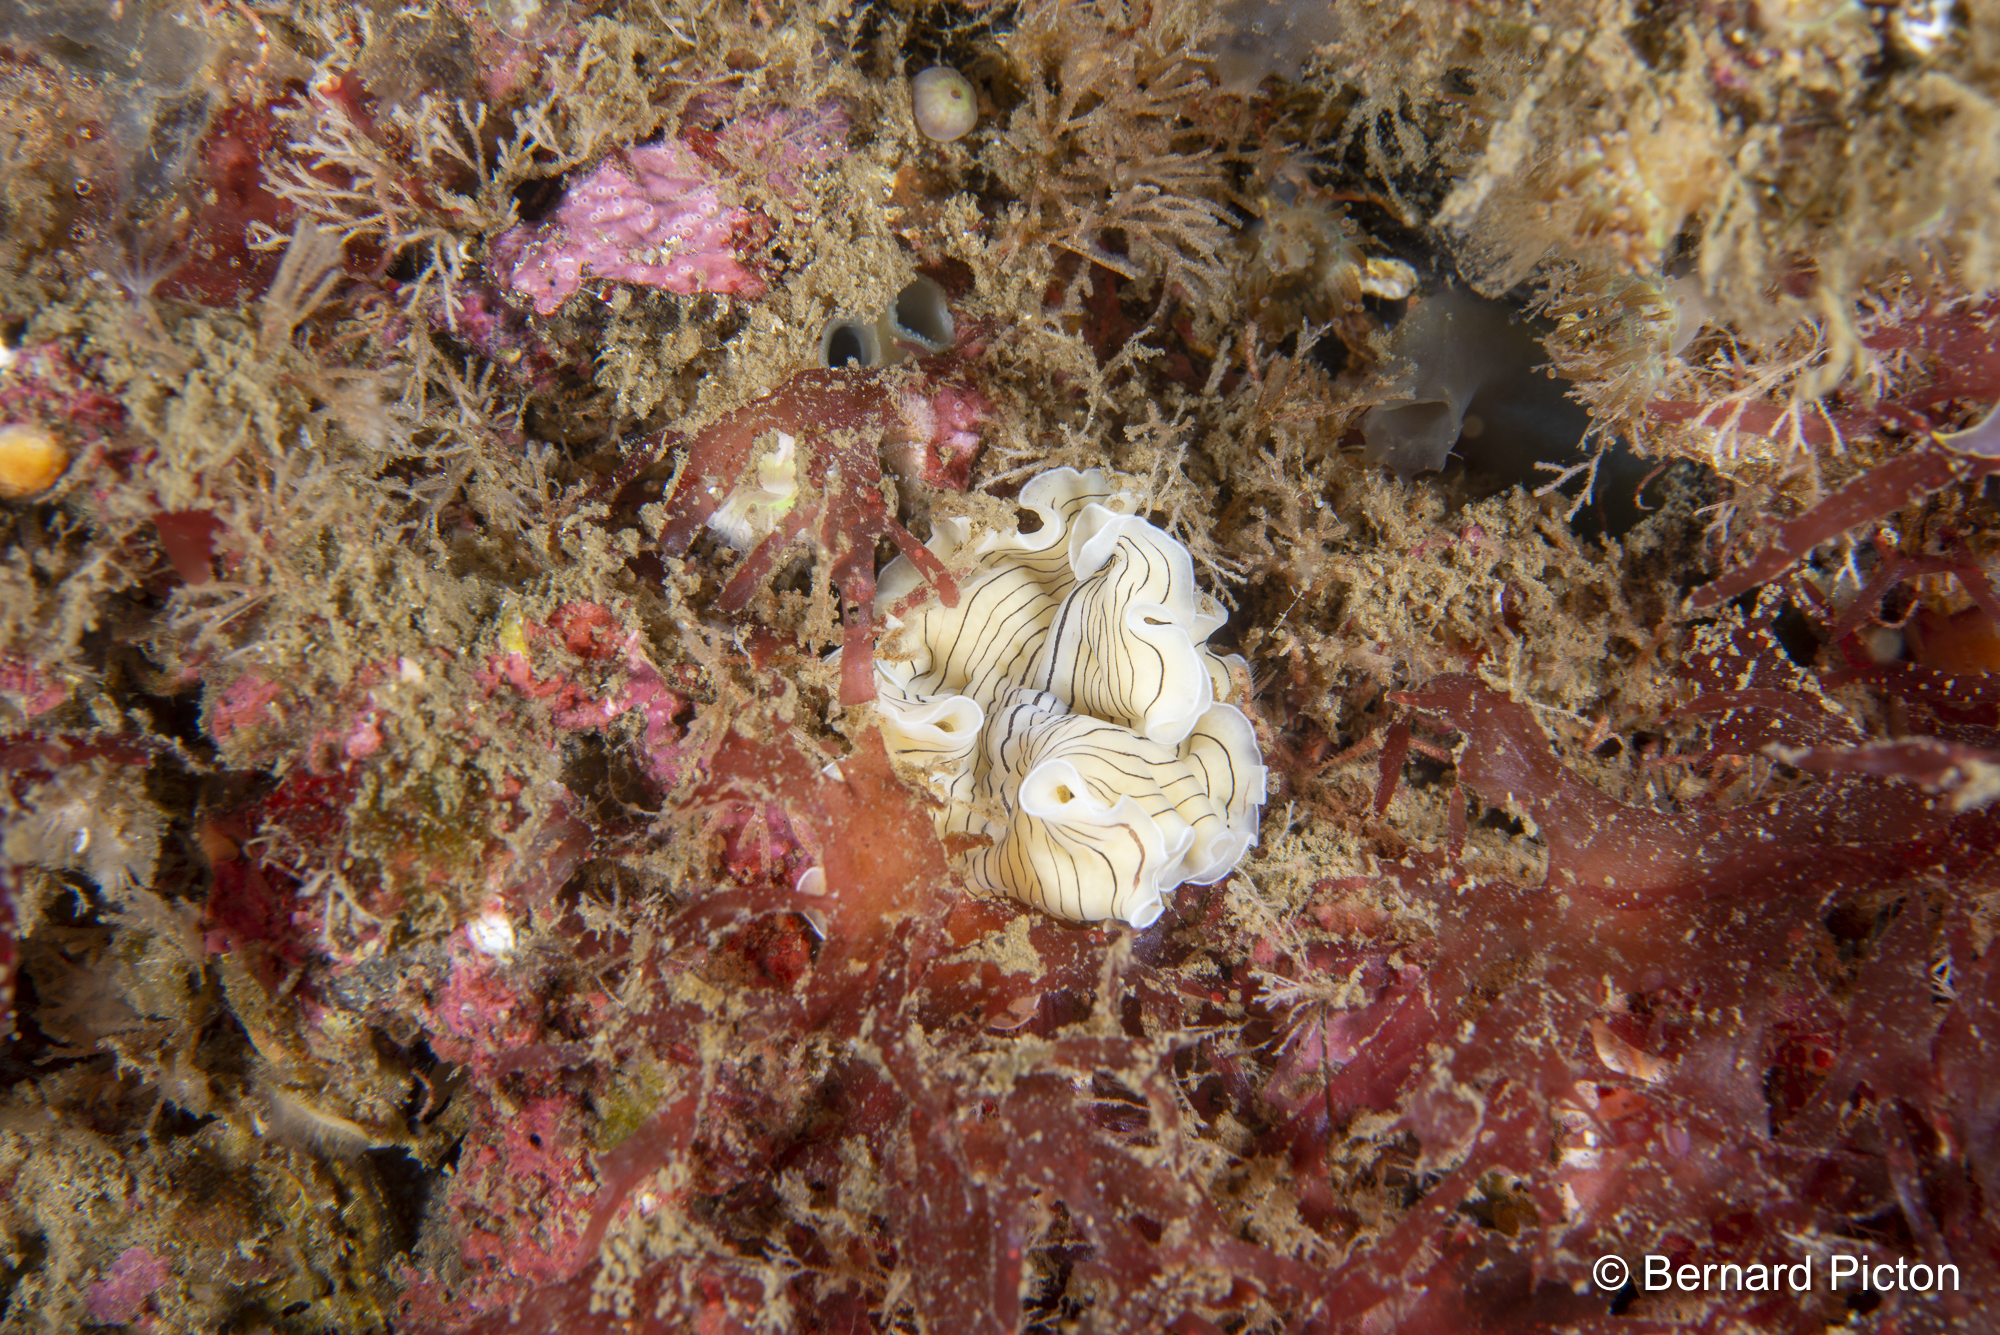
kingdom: Animalia
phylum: Platyhelminthes
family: Euryleptidae
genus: Prostheceraeus
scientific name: Prostheceraeus vittatus
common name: Candy striped flatworm
